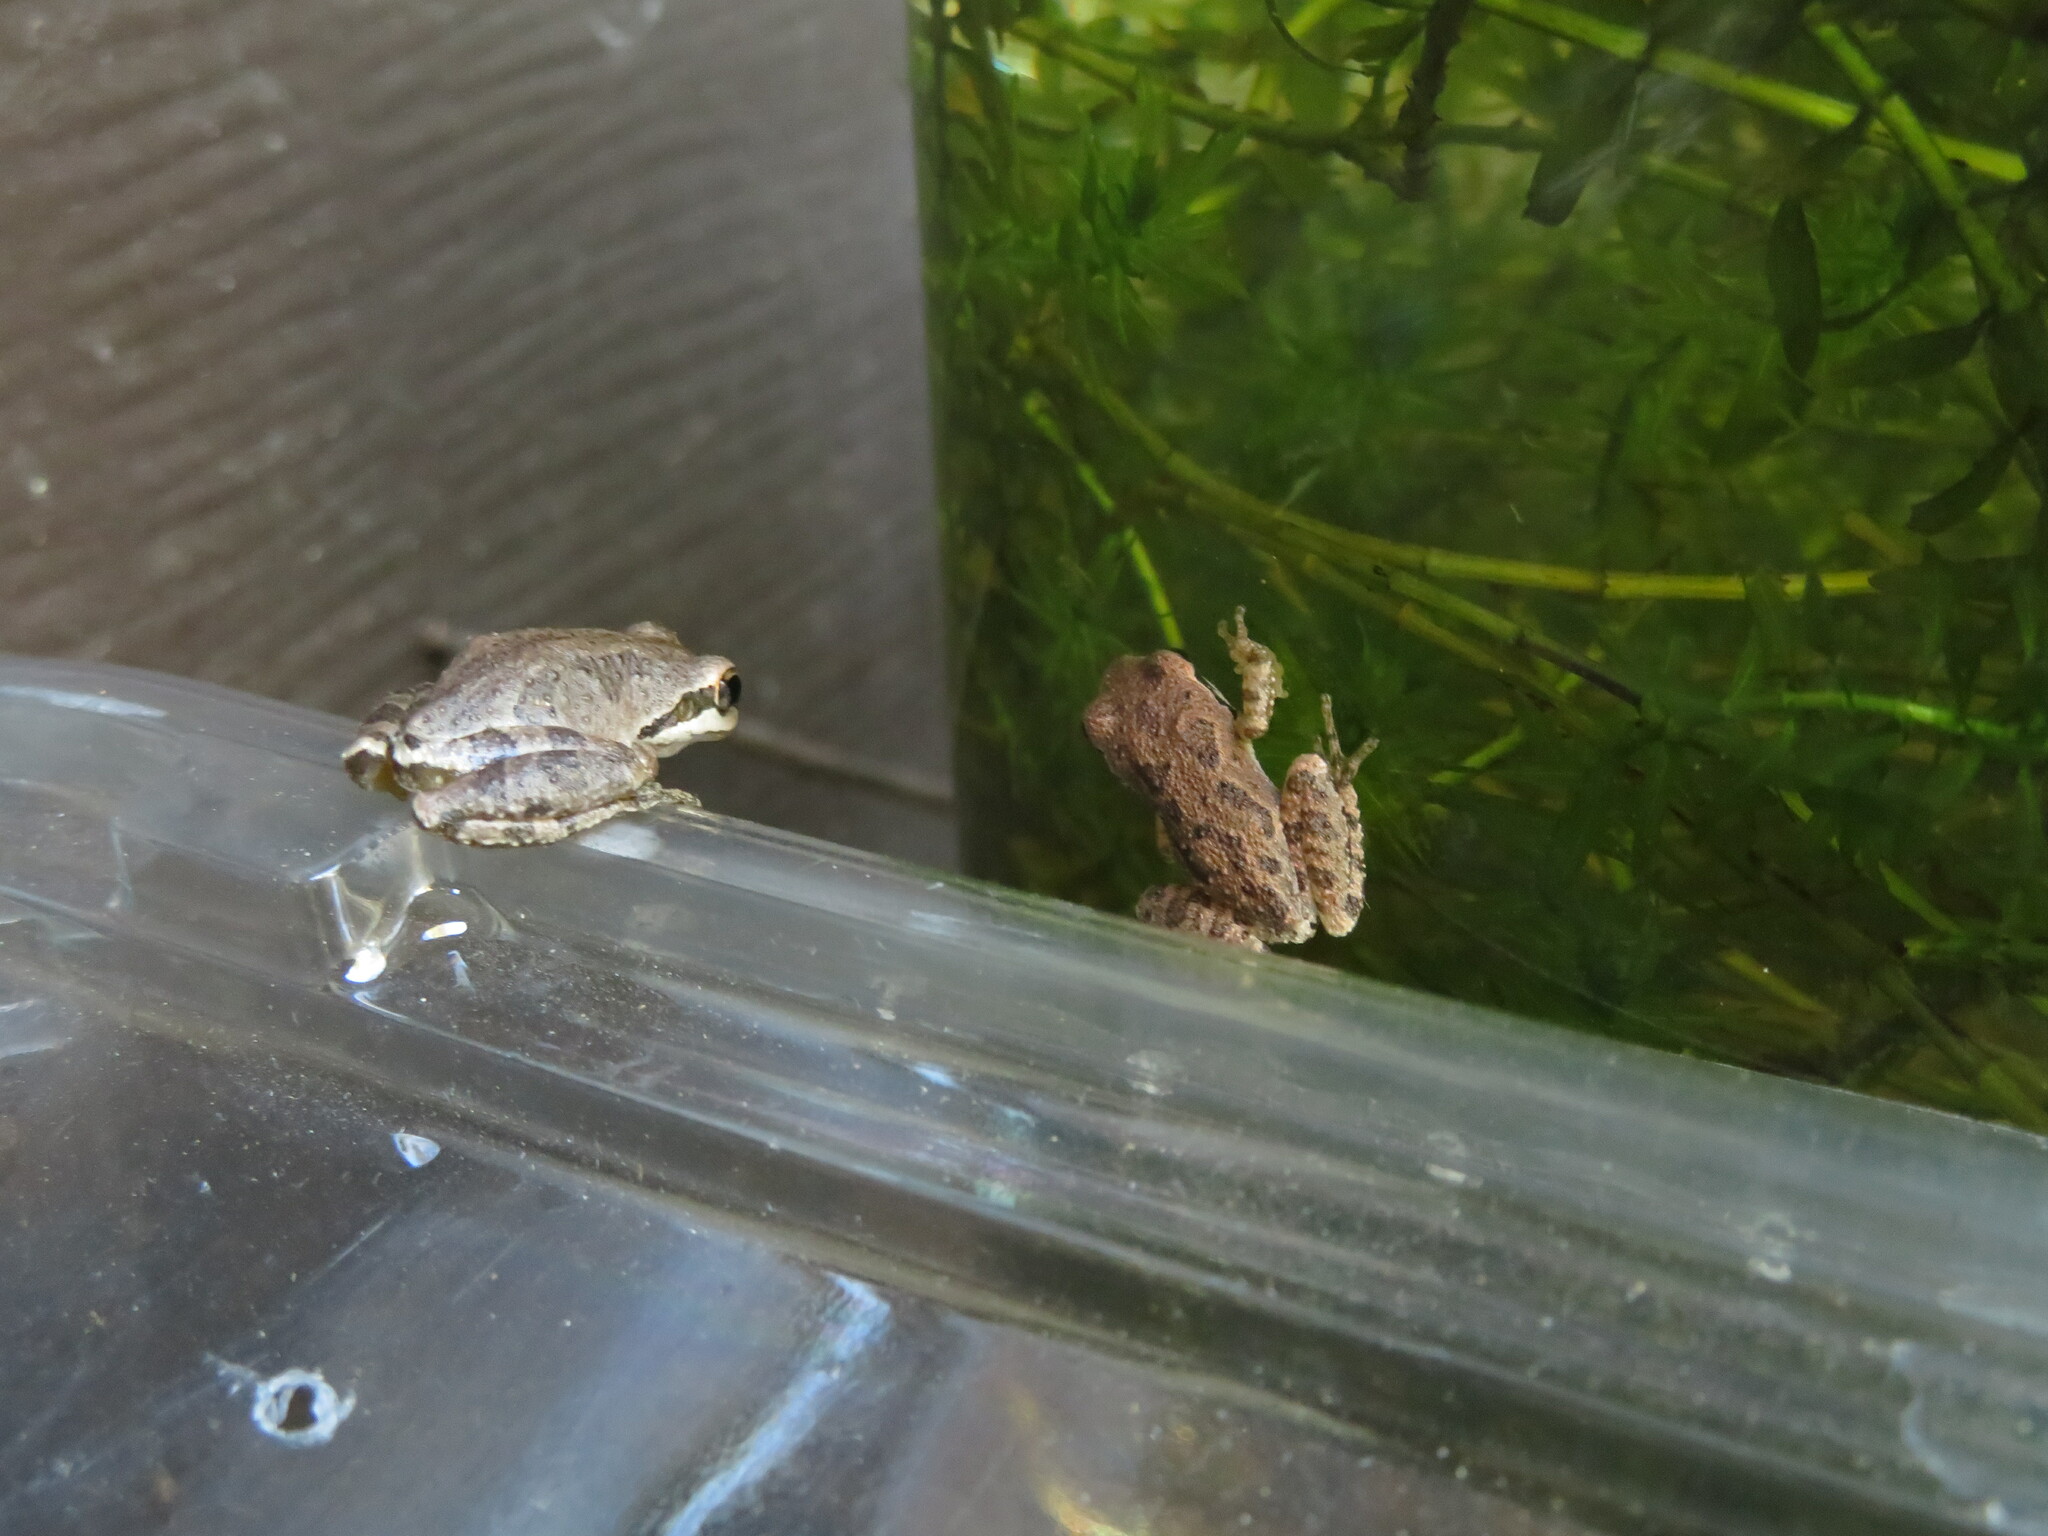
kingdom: Animalia
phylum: Chordata
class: Amphibia
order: Anura
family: Hylidae
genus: Pseudacris
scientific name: Pseudacris regilla
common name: Pacific chorus frog
